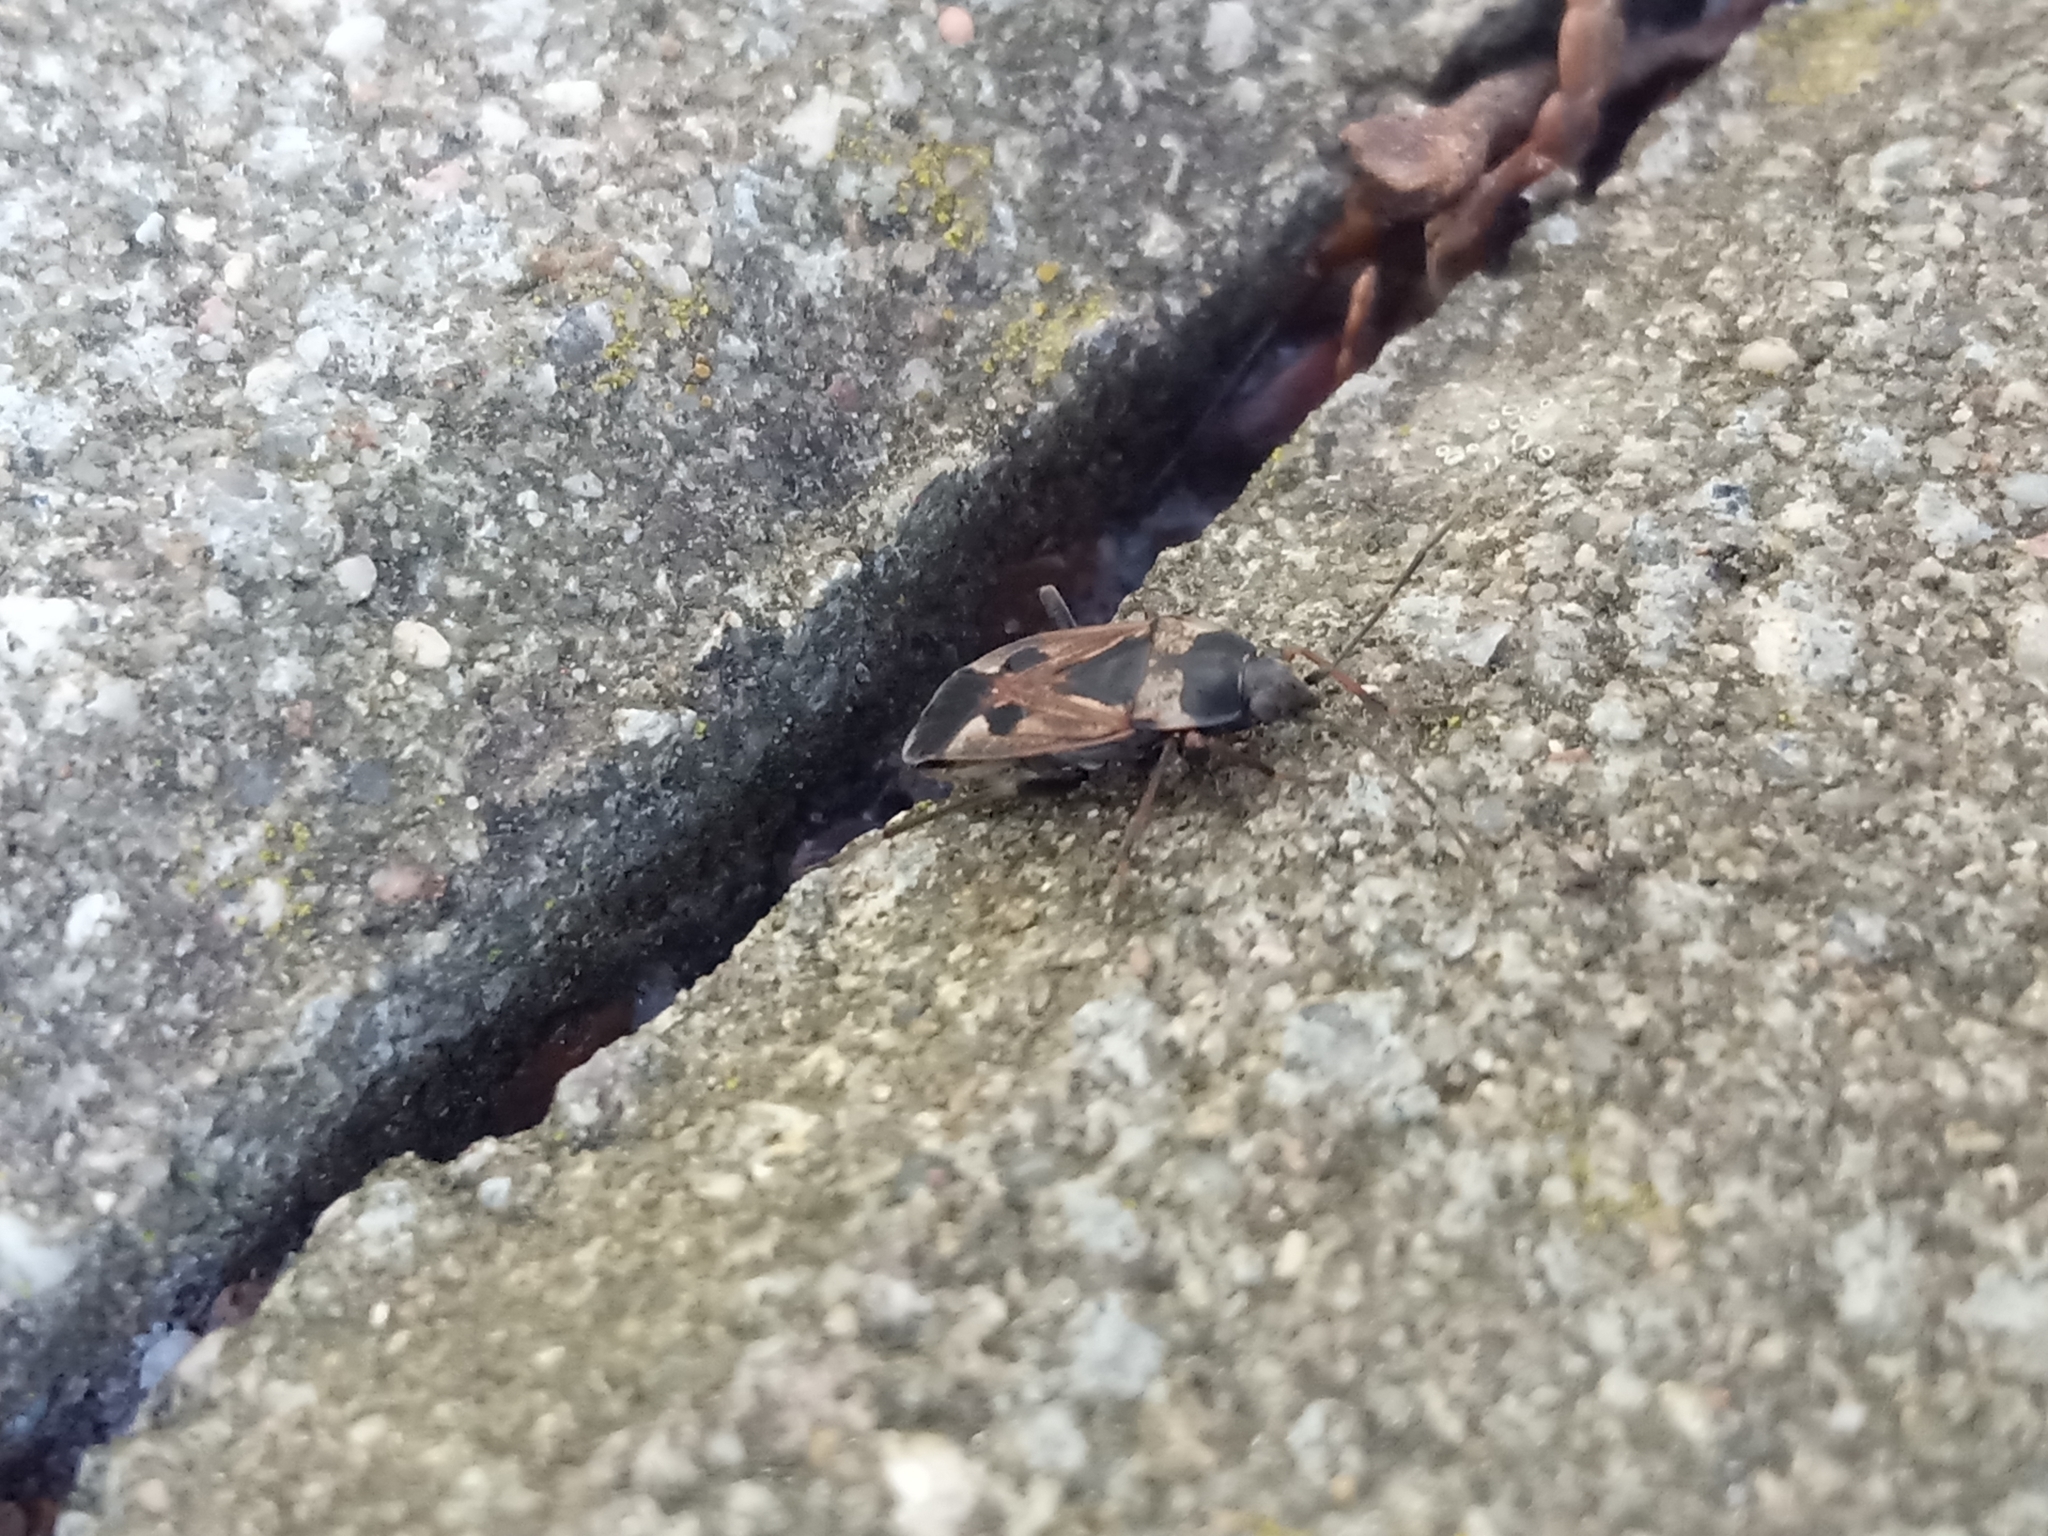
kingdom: Animalia
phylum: Arthropoda
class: Insecta
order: Hemiptera
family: Rhyparochromidae
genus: Rhyparochromus
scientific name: Rhyparochromus vulgaris
